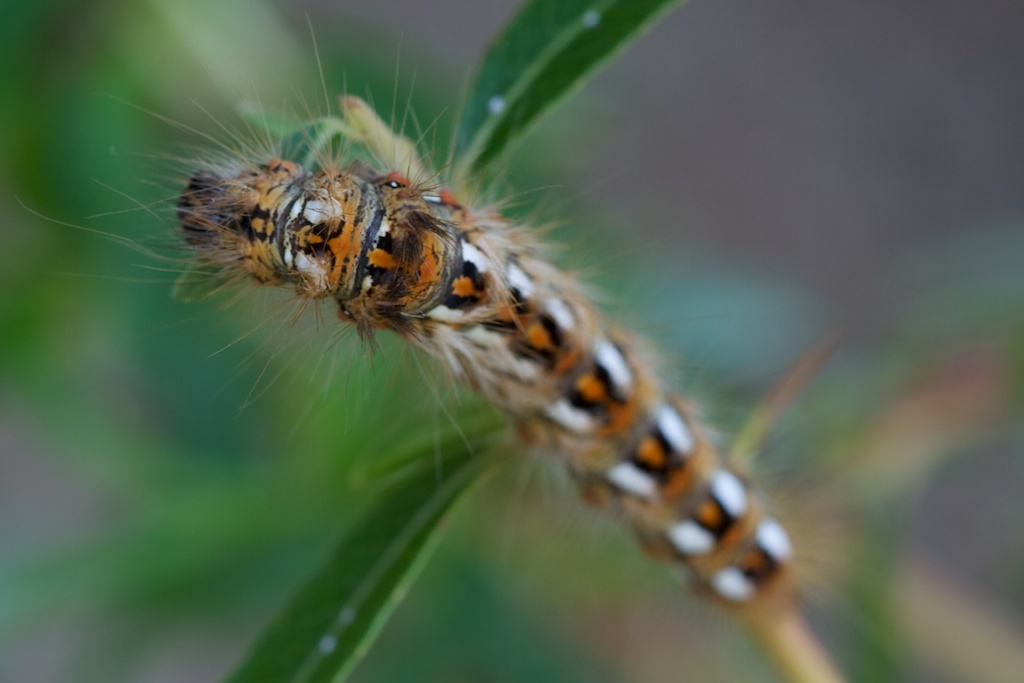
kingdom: Animalia
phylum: Arthropoda
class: Insecta
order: Lepidoptera
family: Noctuidae
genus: Acronicta
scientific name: Acronicta rumicis
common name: Knot grass
